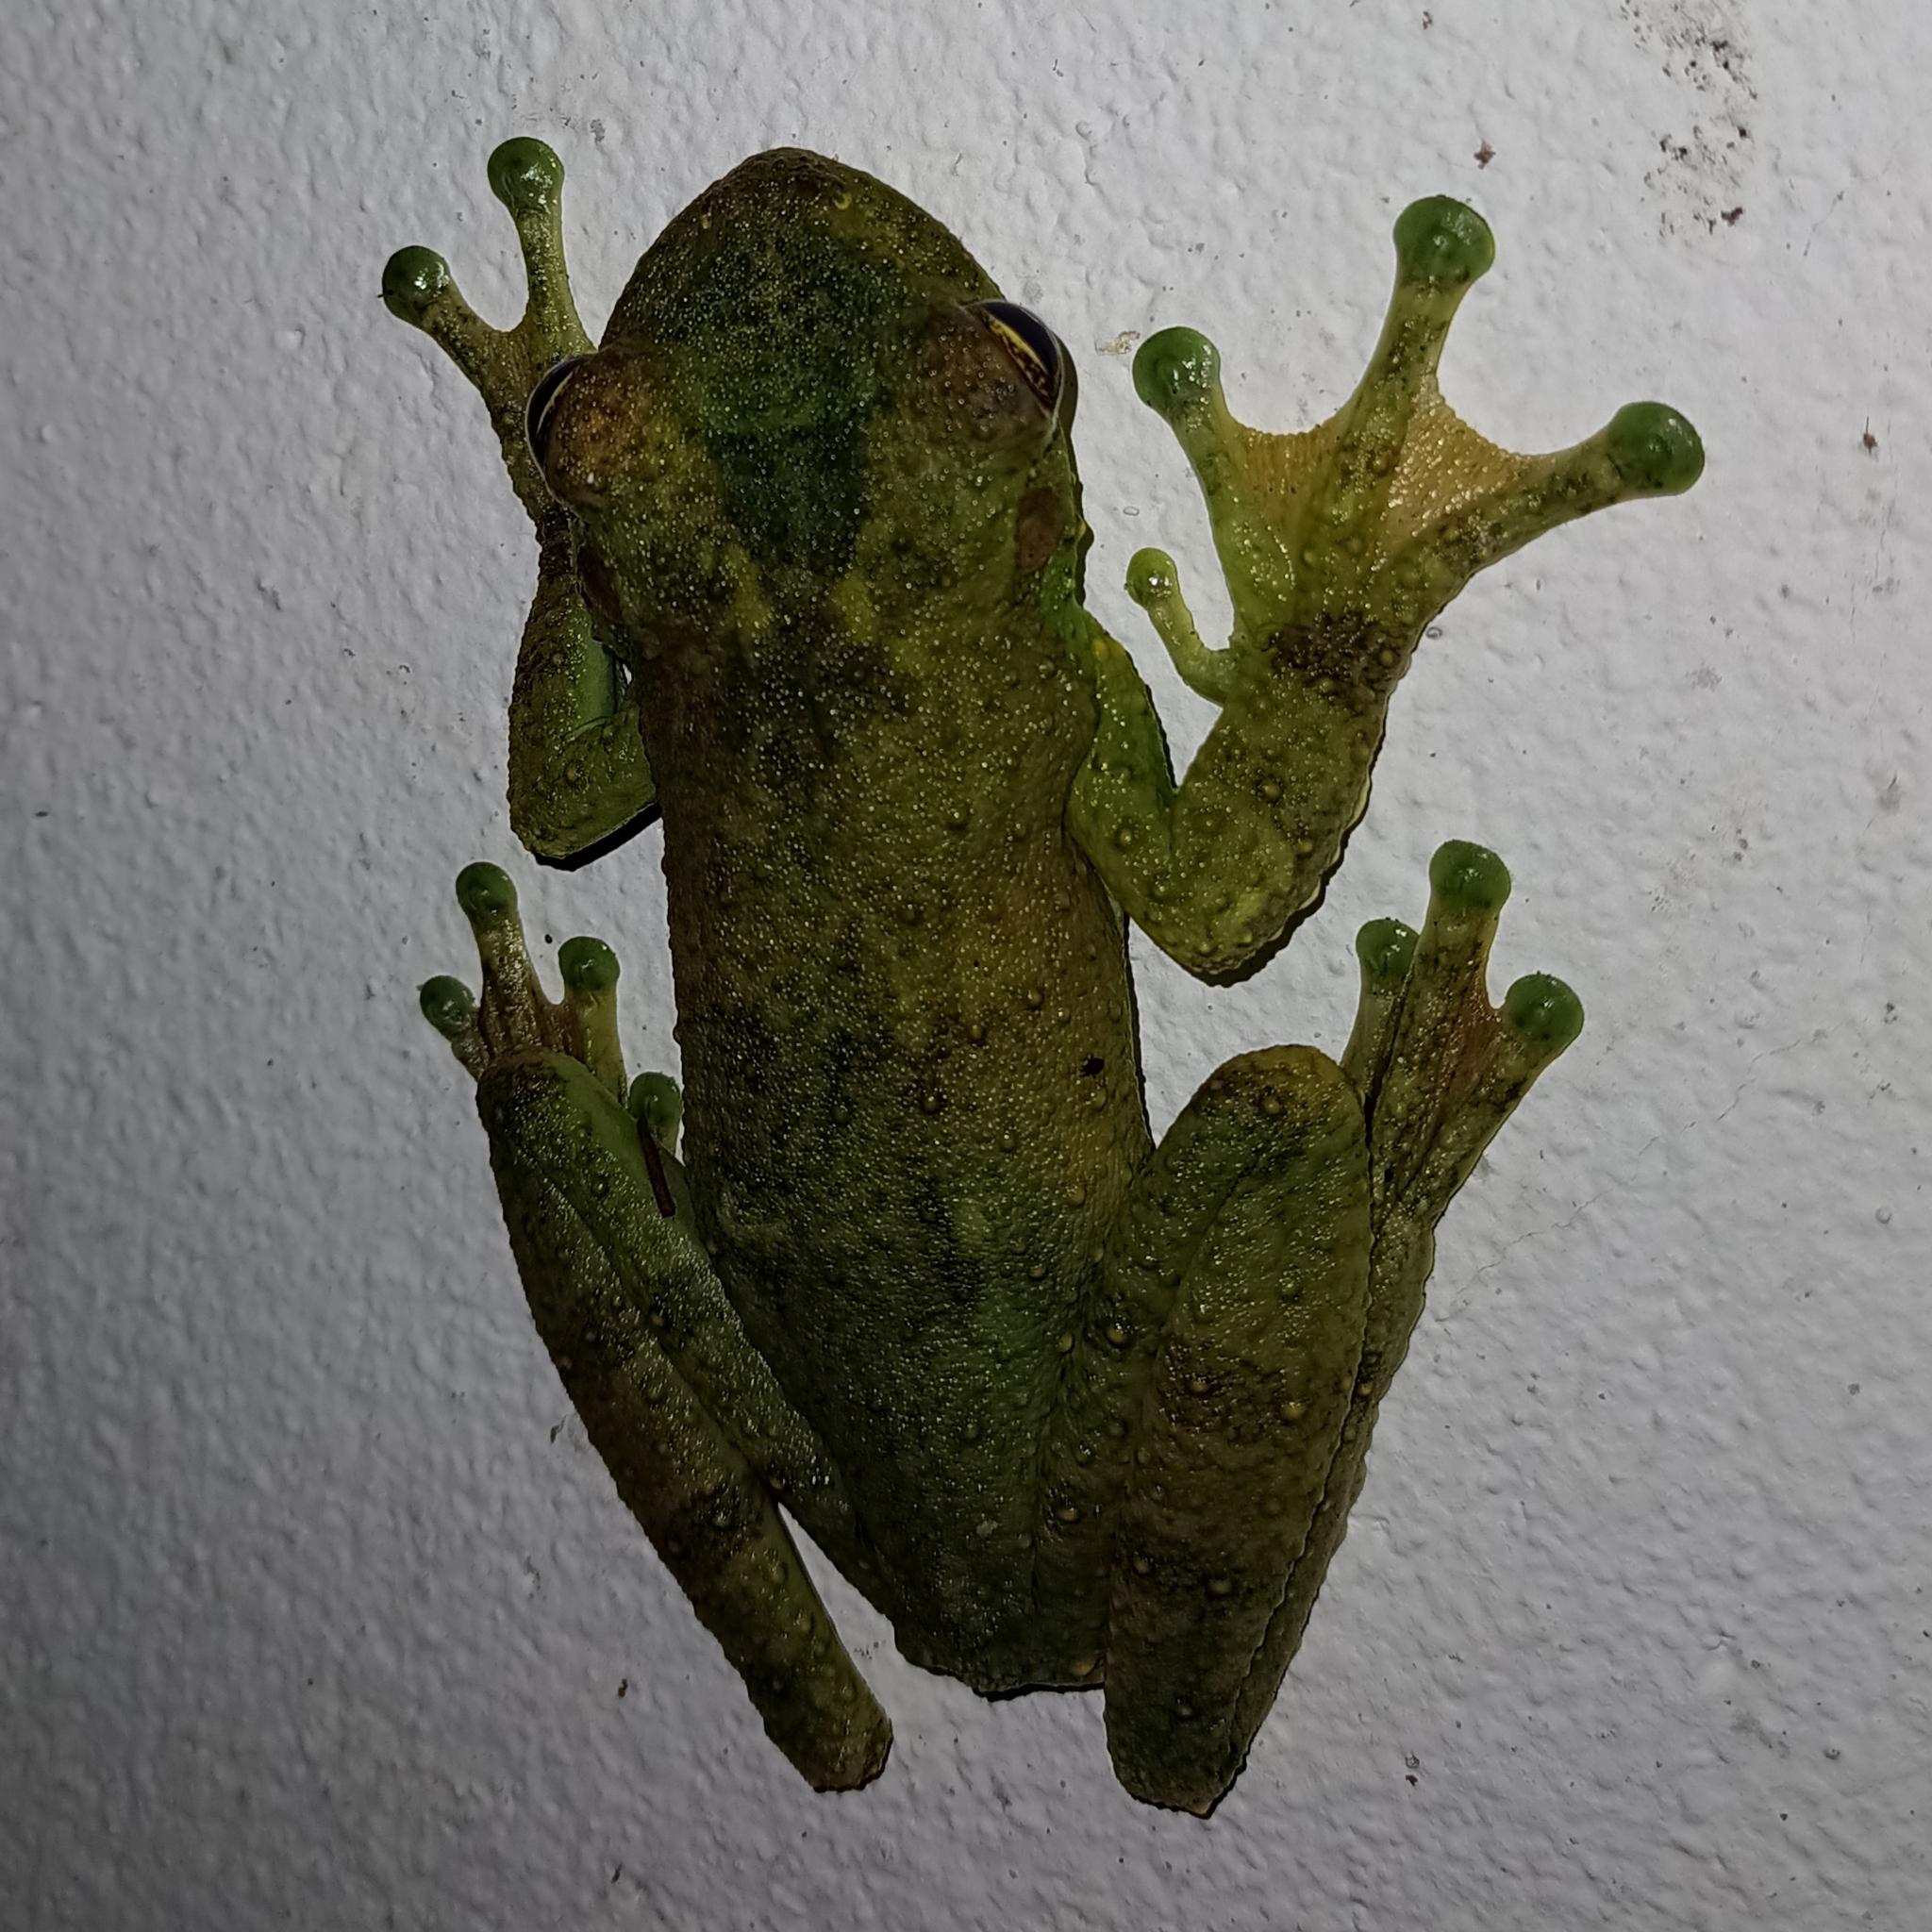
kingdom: Animalia
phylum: Chordata
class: Amphibia
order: Anura
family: Hylidae
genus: Itapotihyla
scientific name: Itapotihyla langsdorffii
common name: Ocellated treefrog
